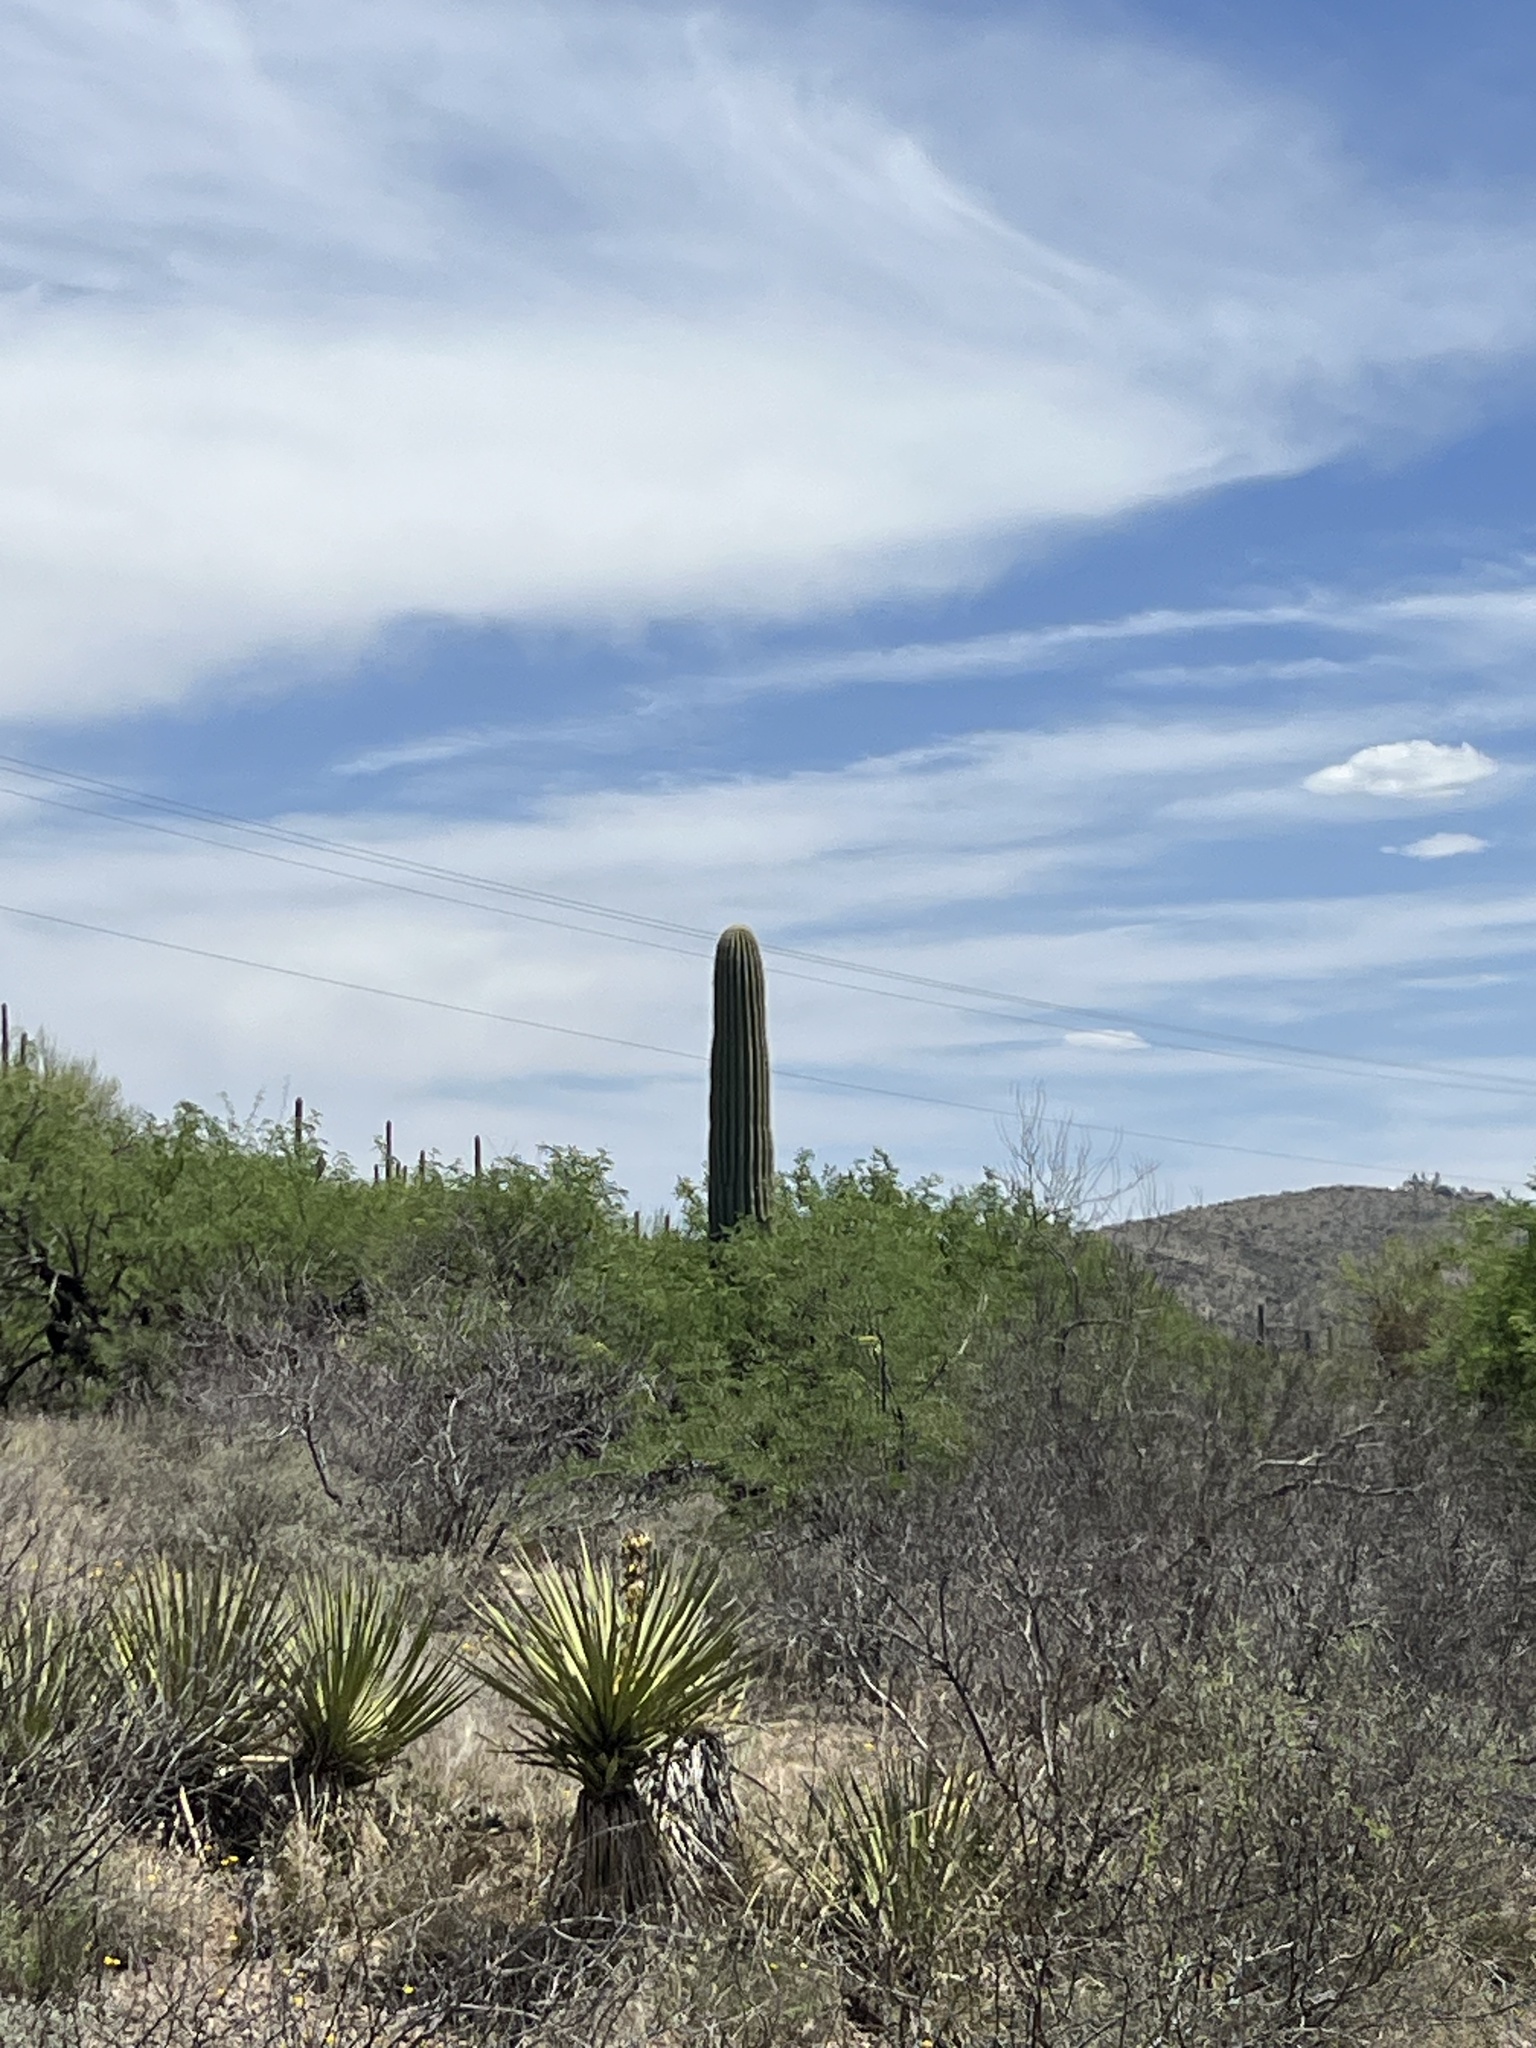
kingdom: Plantae
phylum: Tracheophyta
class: Magnoliopsida
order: Caryophyllales
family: Cactaceae
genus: Carnegiea
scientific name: Carnegiea gigantea
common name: Saguaro
